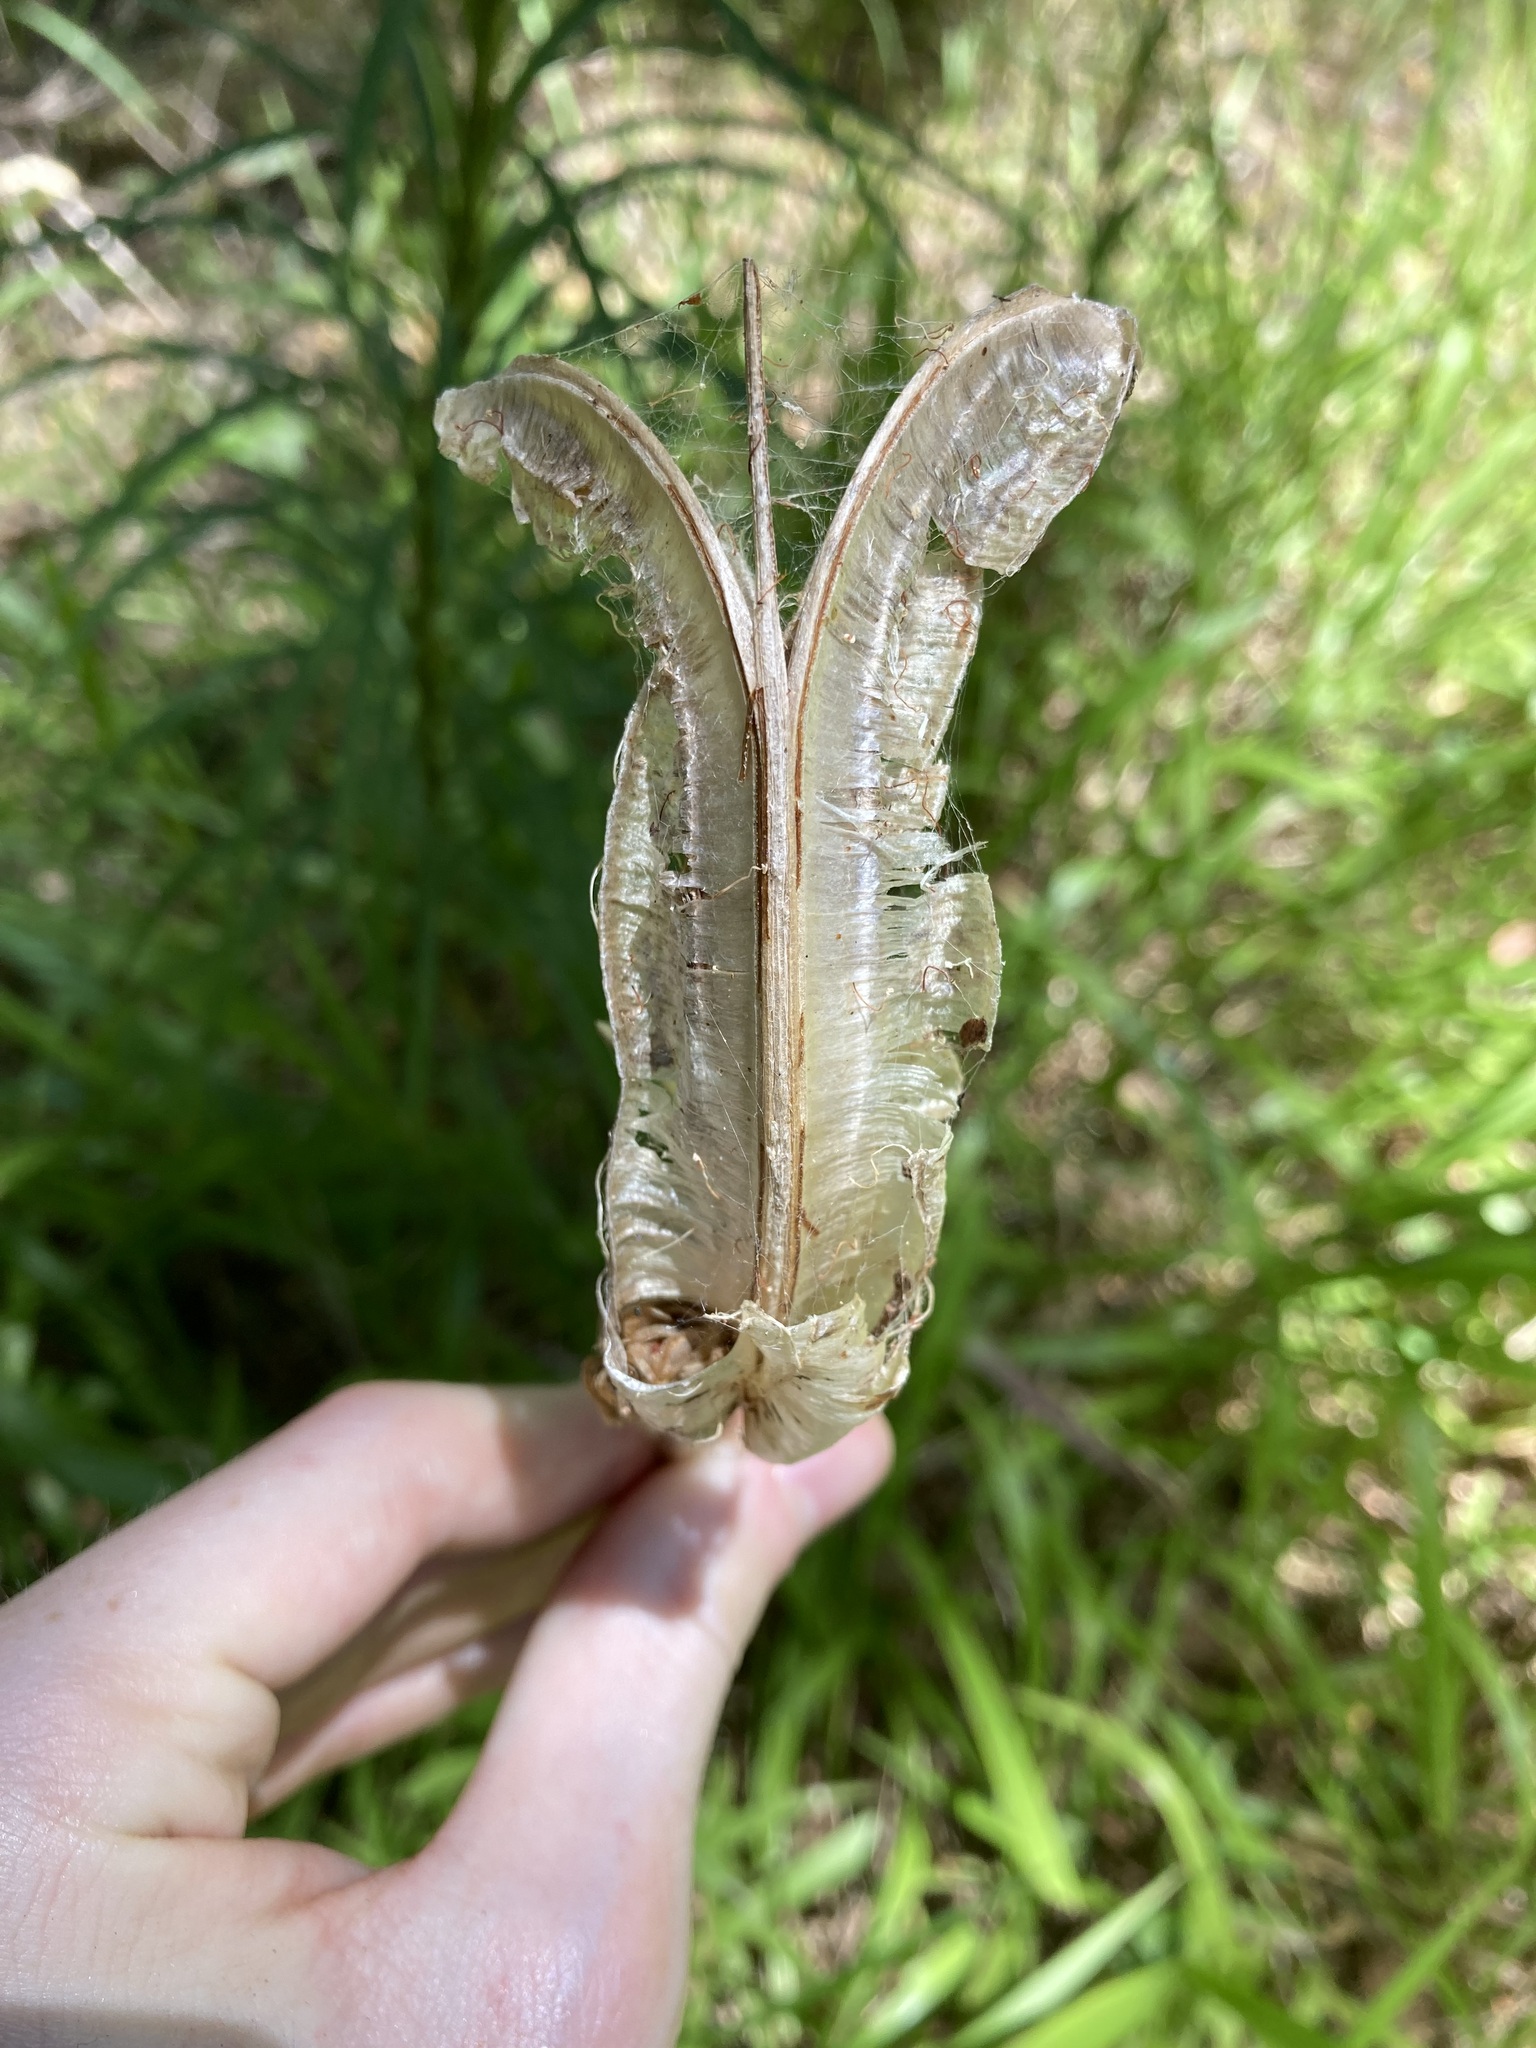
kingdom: Plantae
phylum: Tracheophyta
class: Liliopsida
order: Liliales
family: Liliaceae
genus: Lilium
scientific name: Lilium formosanum
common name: Formosa lily
